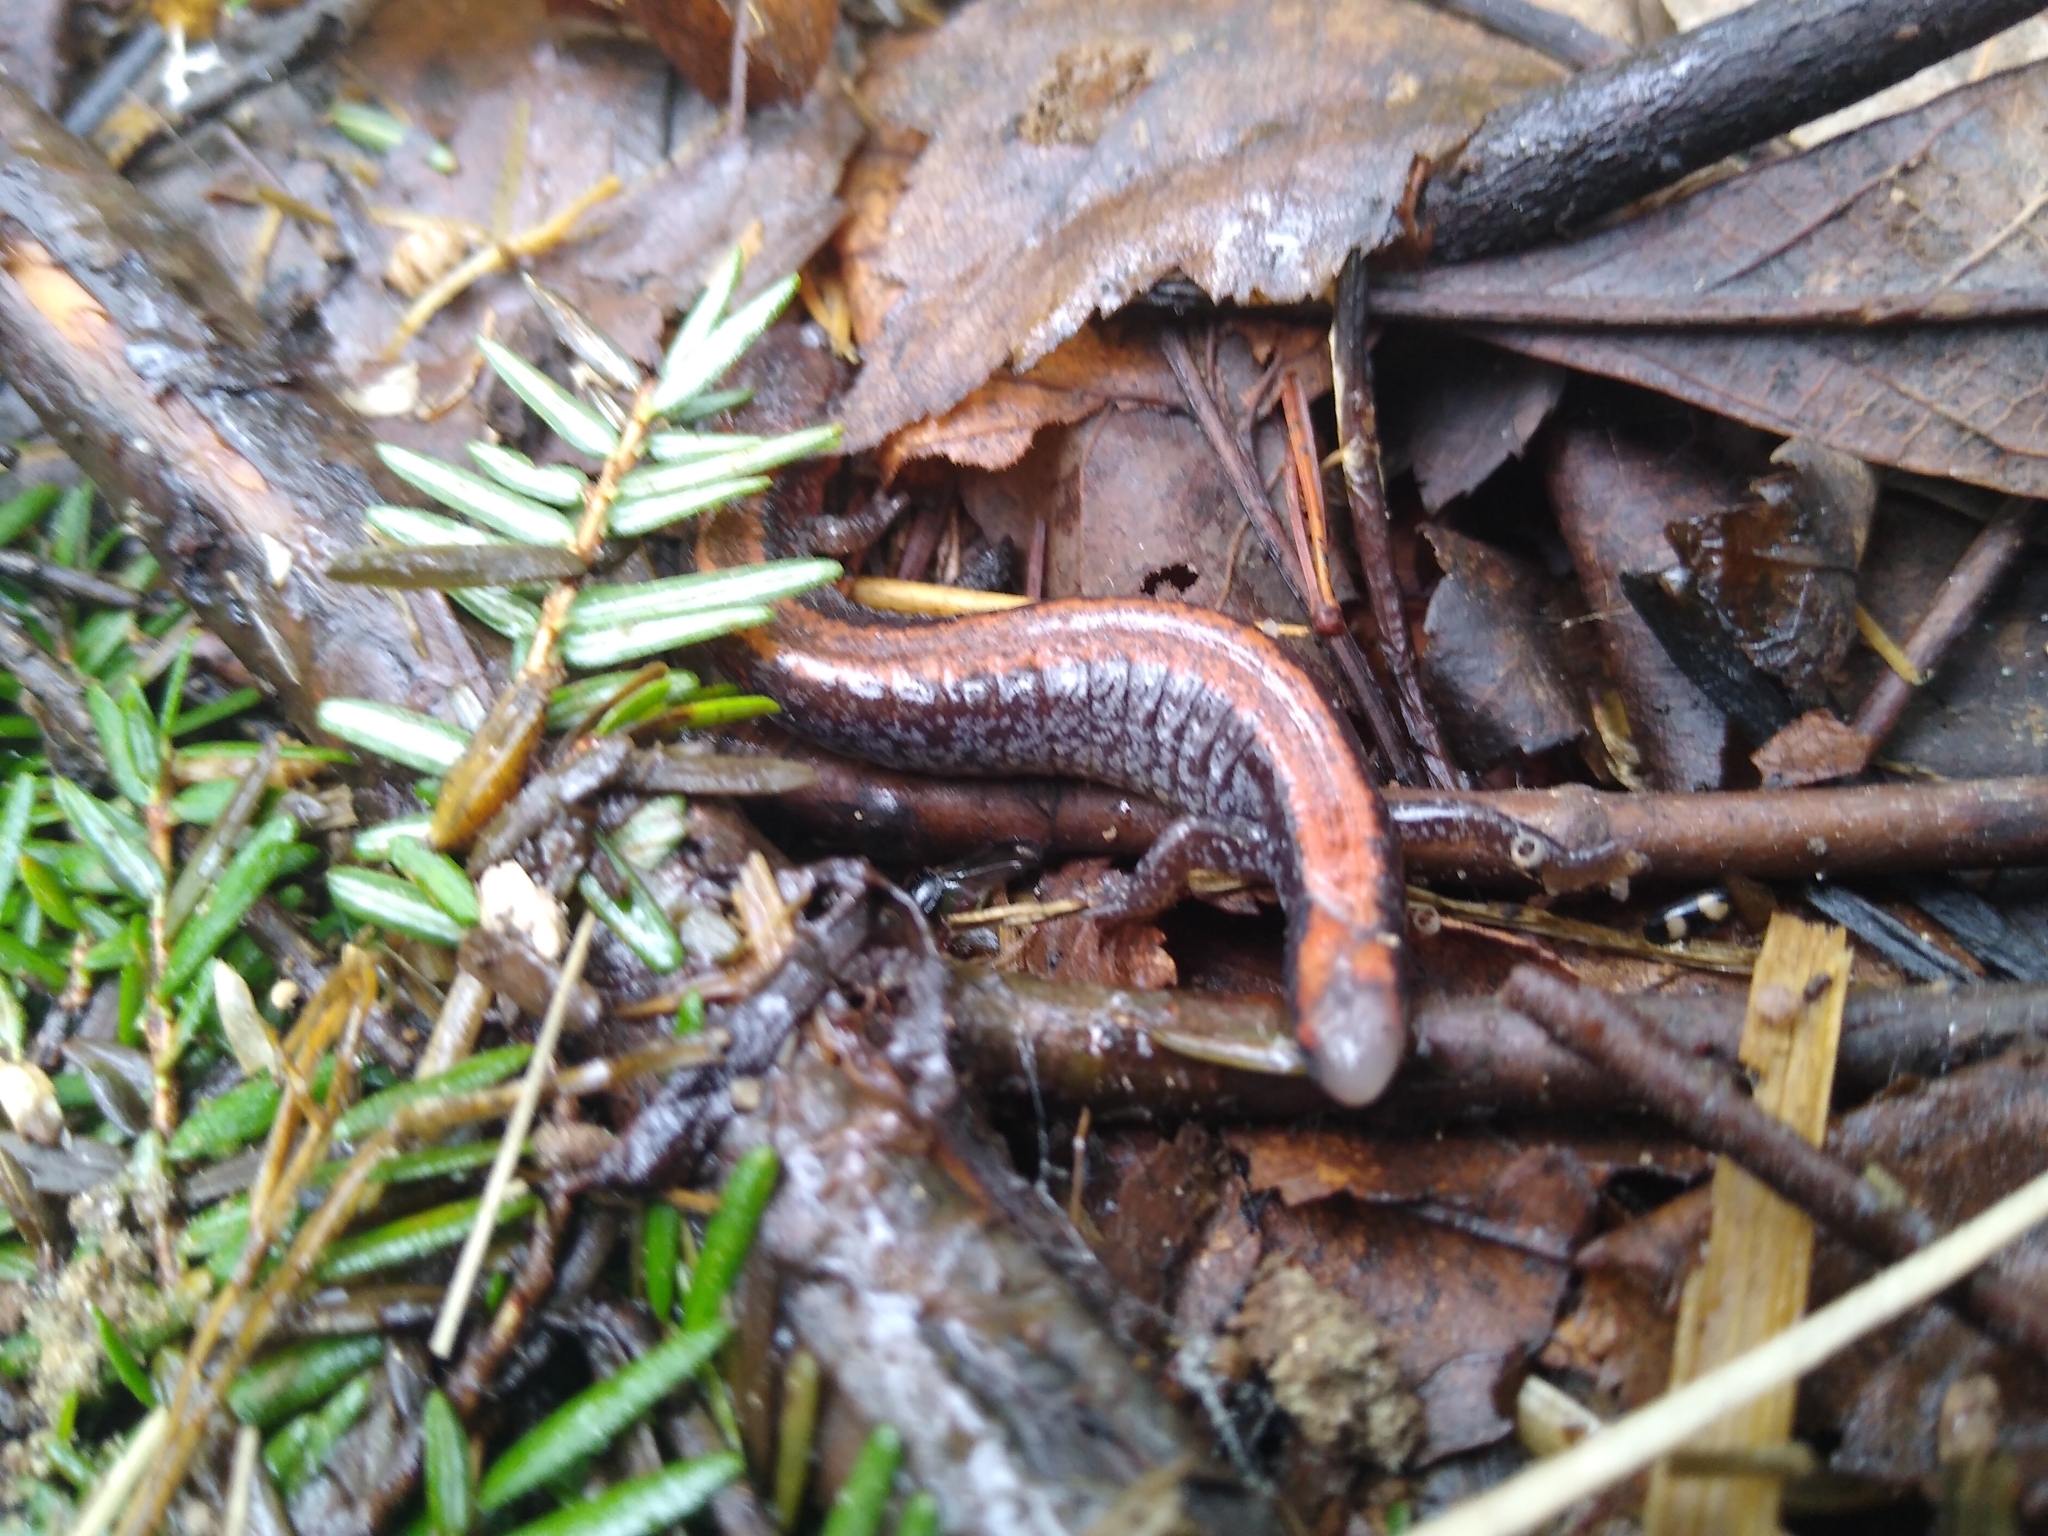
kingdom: Animalia
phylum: Chordata
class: Amphibia
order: Caudata
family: Plethodontidae
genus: Plethodon
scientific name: Plethodon cinereus
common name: Redback salamander
